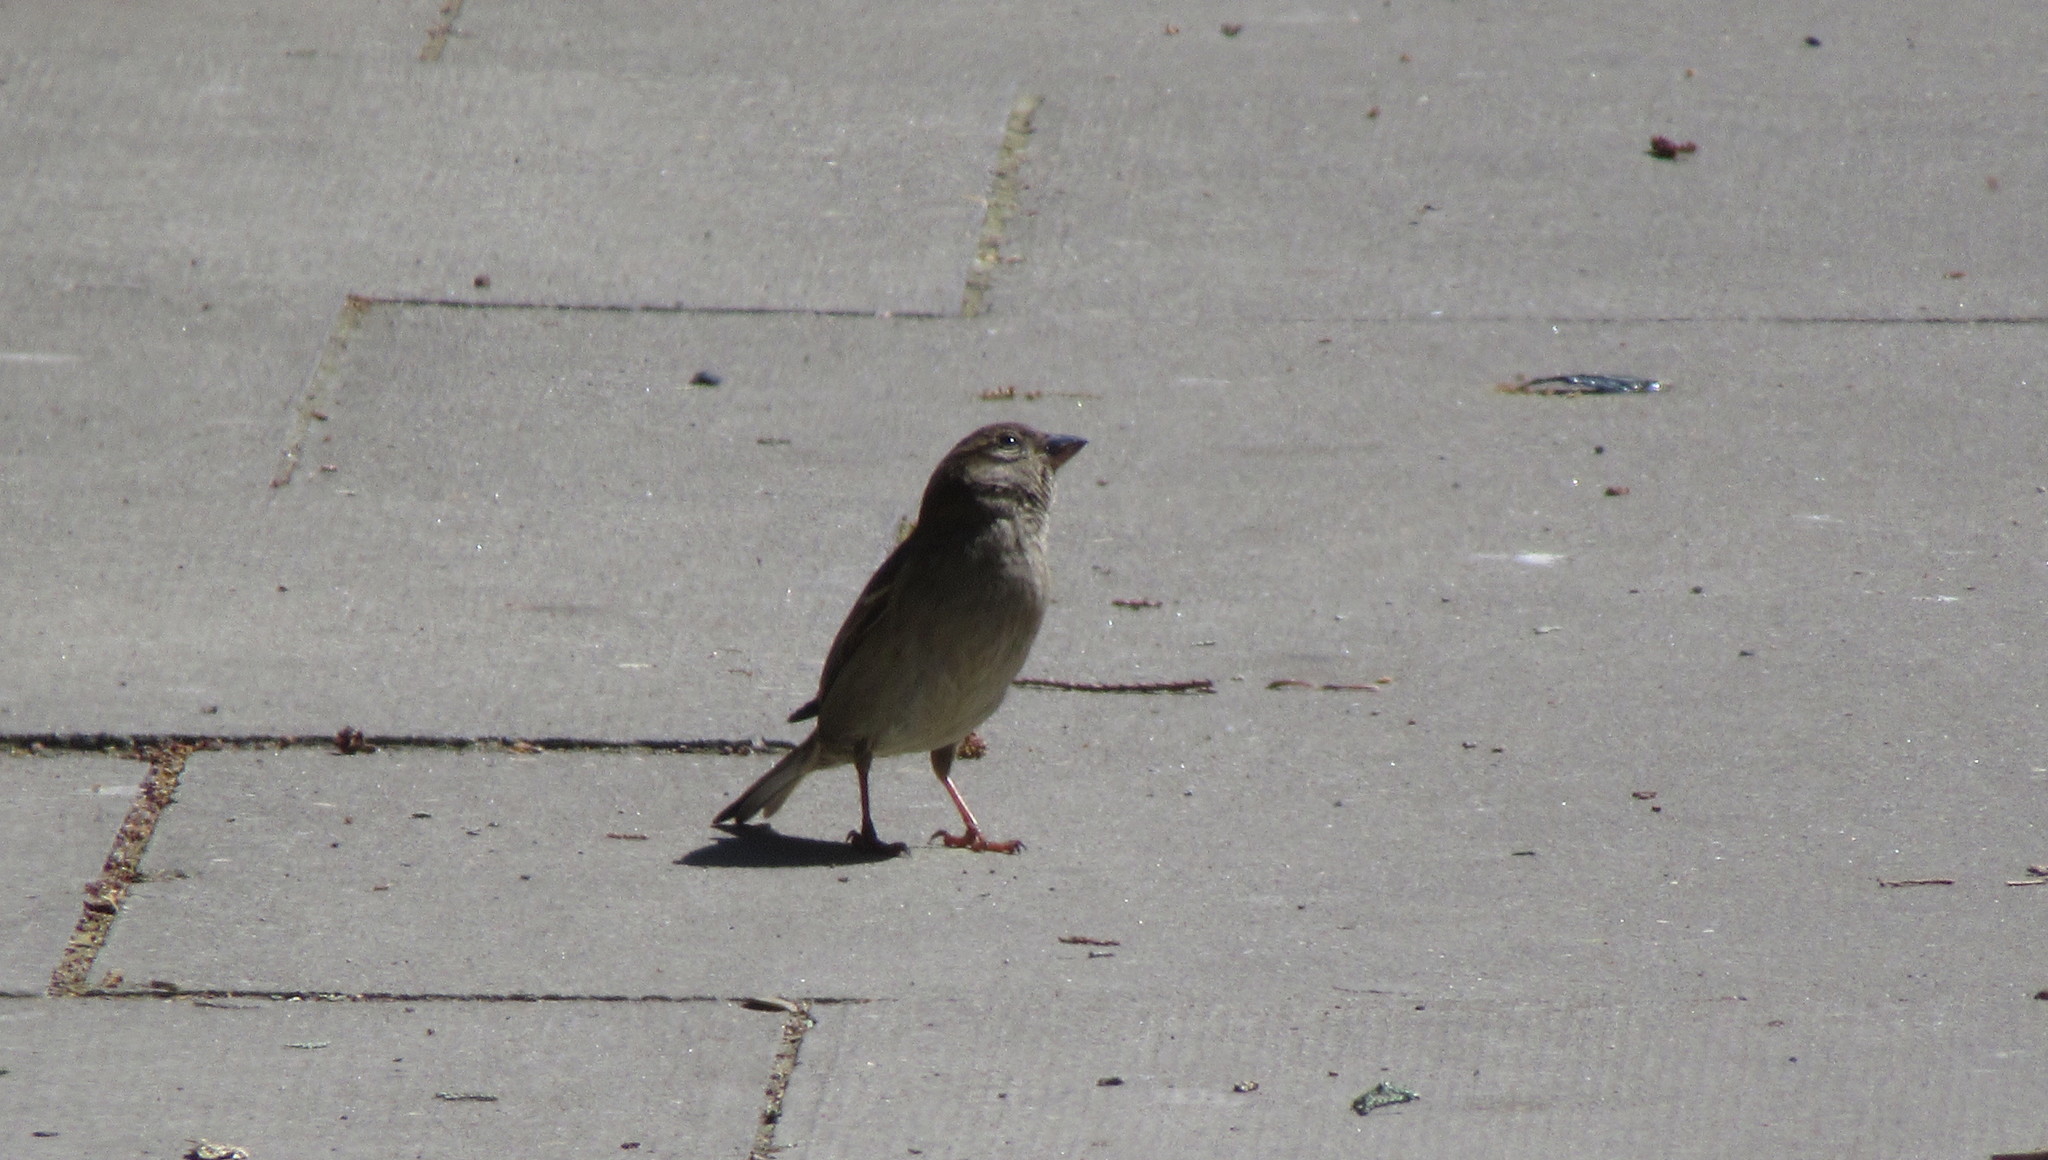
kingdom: Animalia
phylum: Chordata
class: Aves
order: Passeriformes
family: Passeridae
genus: Passer
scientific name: Passer domesticus
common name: House sparrow
